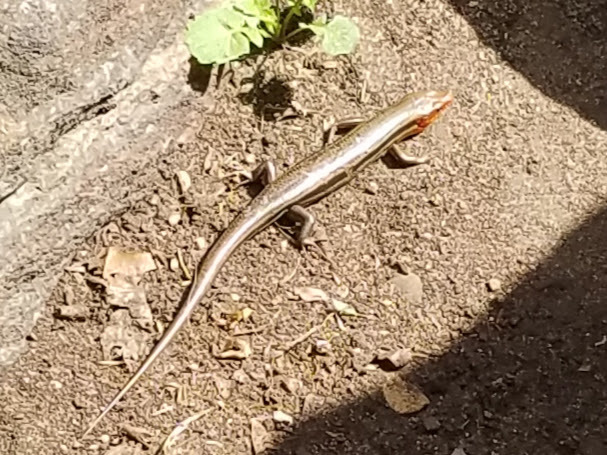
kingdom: Animalia
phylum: Chordata
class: Squamata
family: Scincidae
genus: Plestiodon
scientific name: Plestiodon inexpectatus
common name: Southeastern five-lined skink
